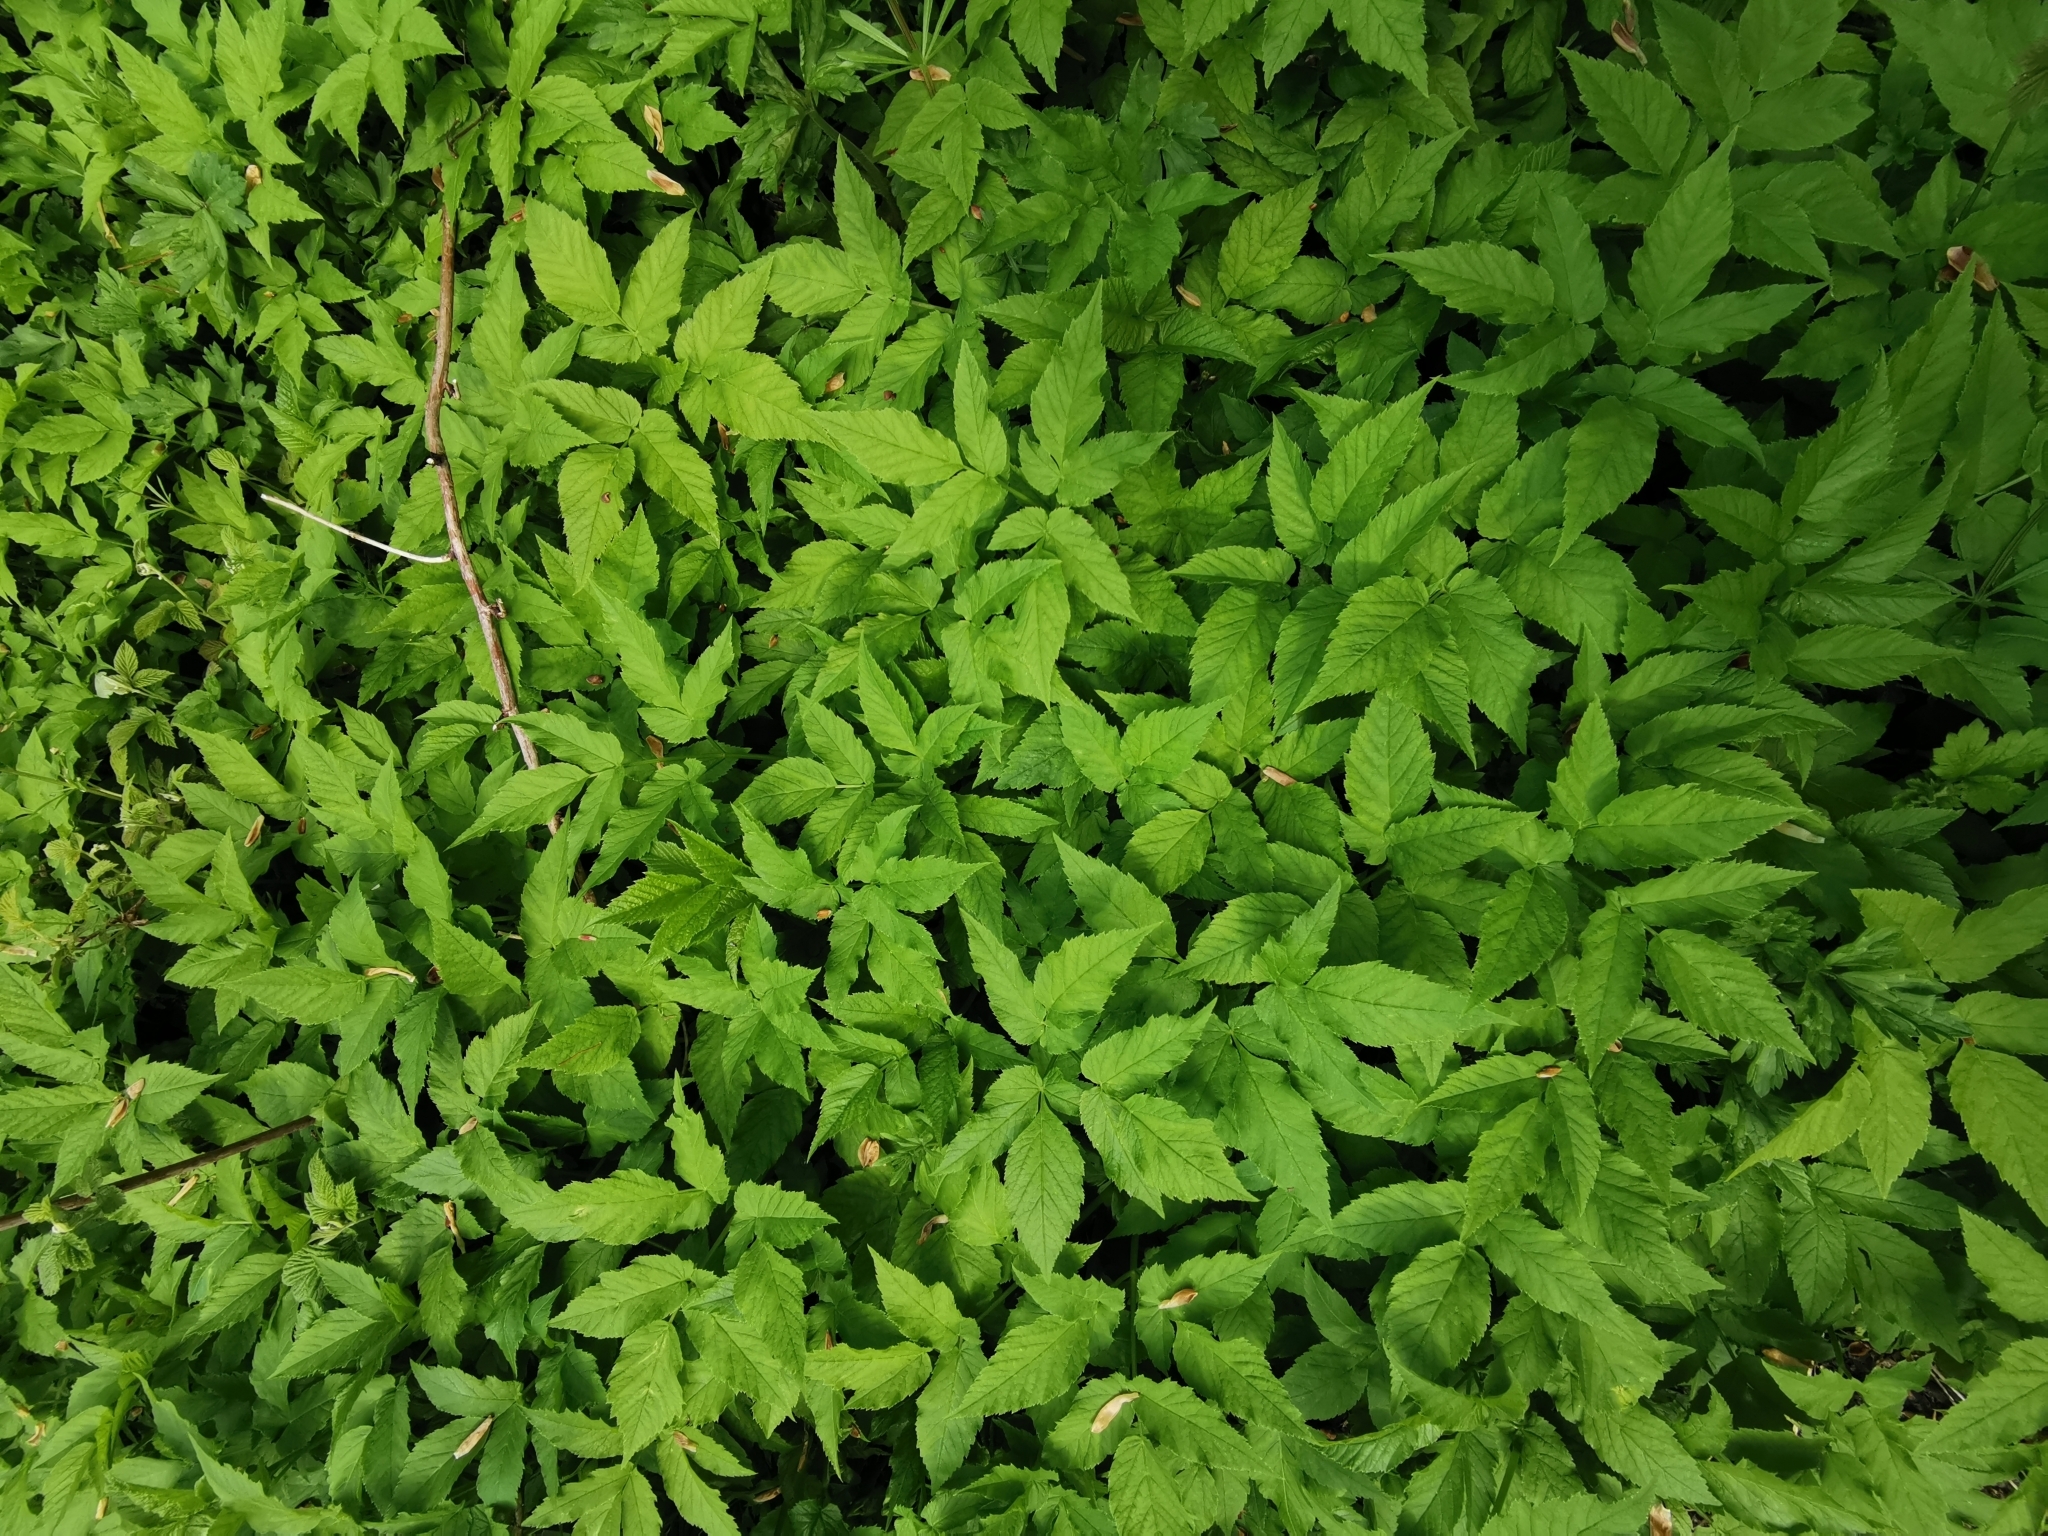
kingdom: Plantae
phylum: Tracheophyta
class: Magnoliopsida
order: Apiales
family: Apiaceae
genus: Aegopodium
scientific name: Aegopodium podagraria
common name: Ground-elder
